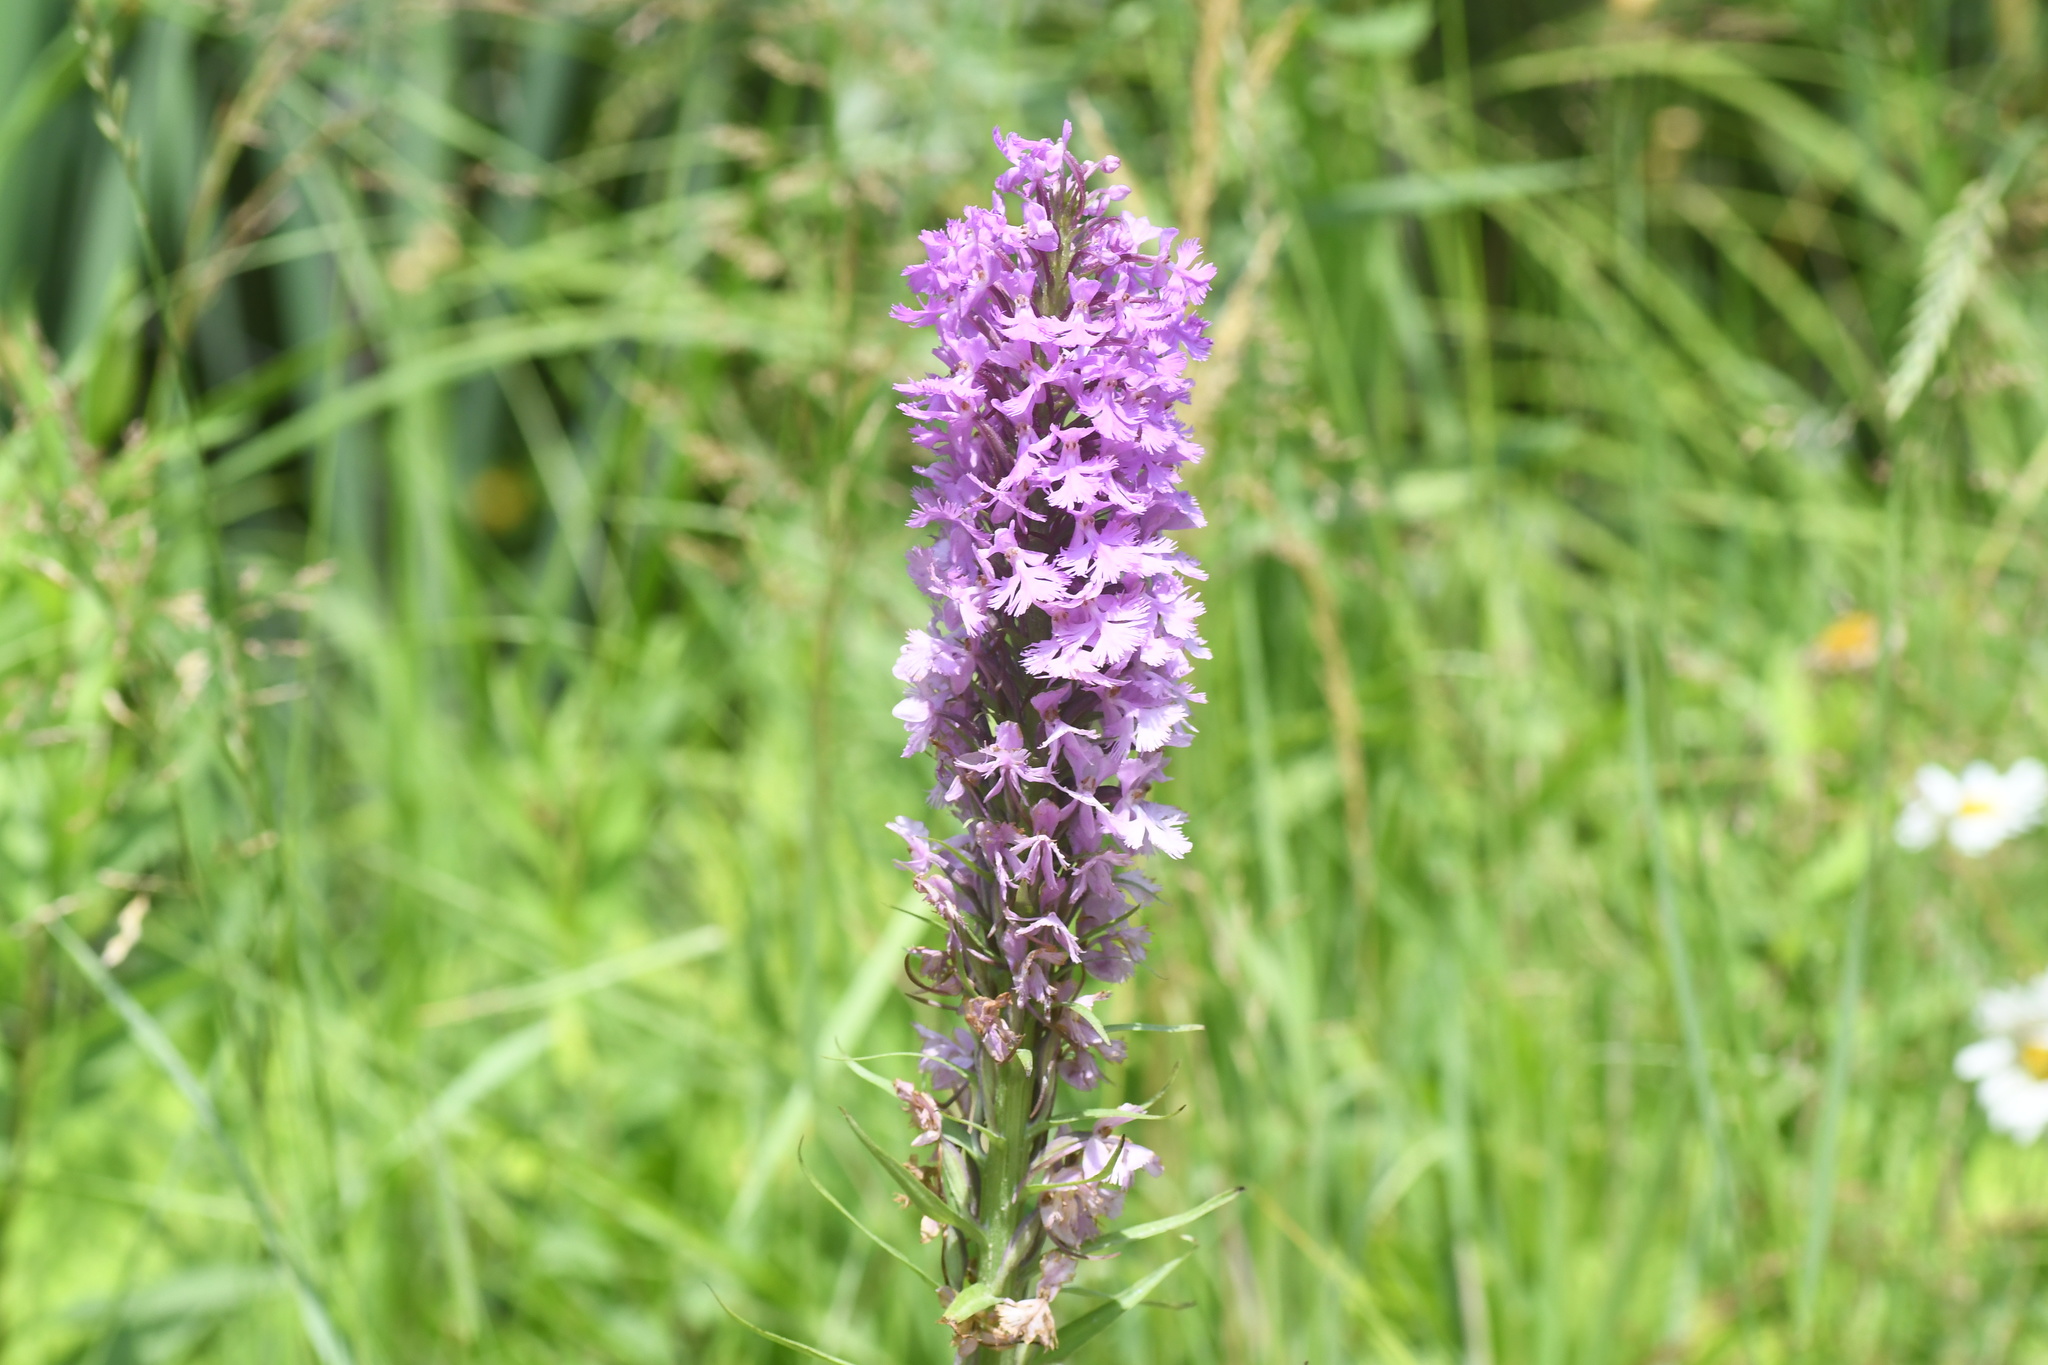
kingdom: Plantae
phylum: Tracheophyta
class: Liliopsida
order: Asparagales
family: Orchidaceae
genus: Platanthera
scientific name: Platanthera psycodes
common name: Lesser purple fringed orchid
